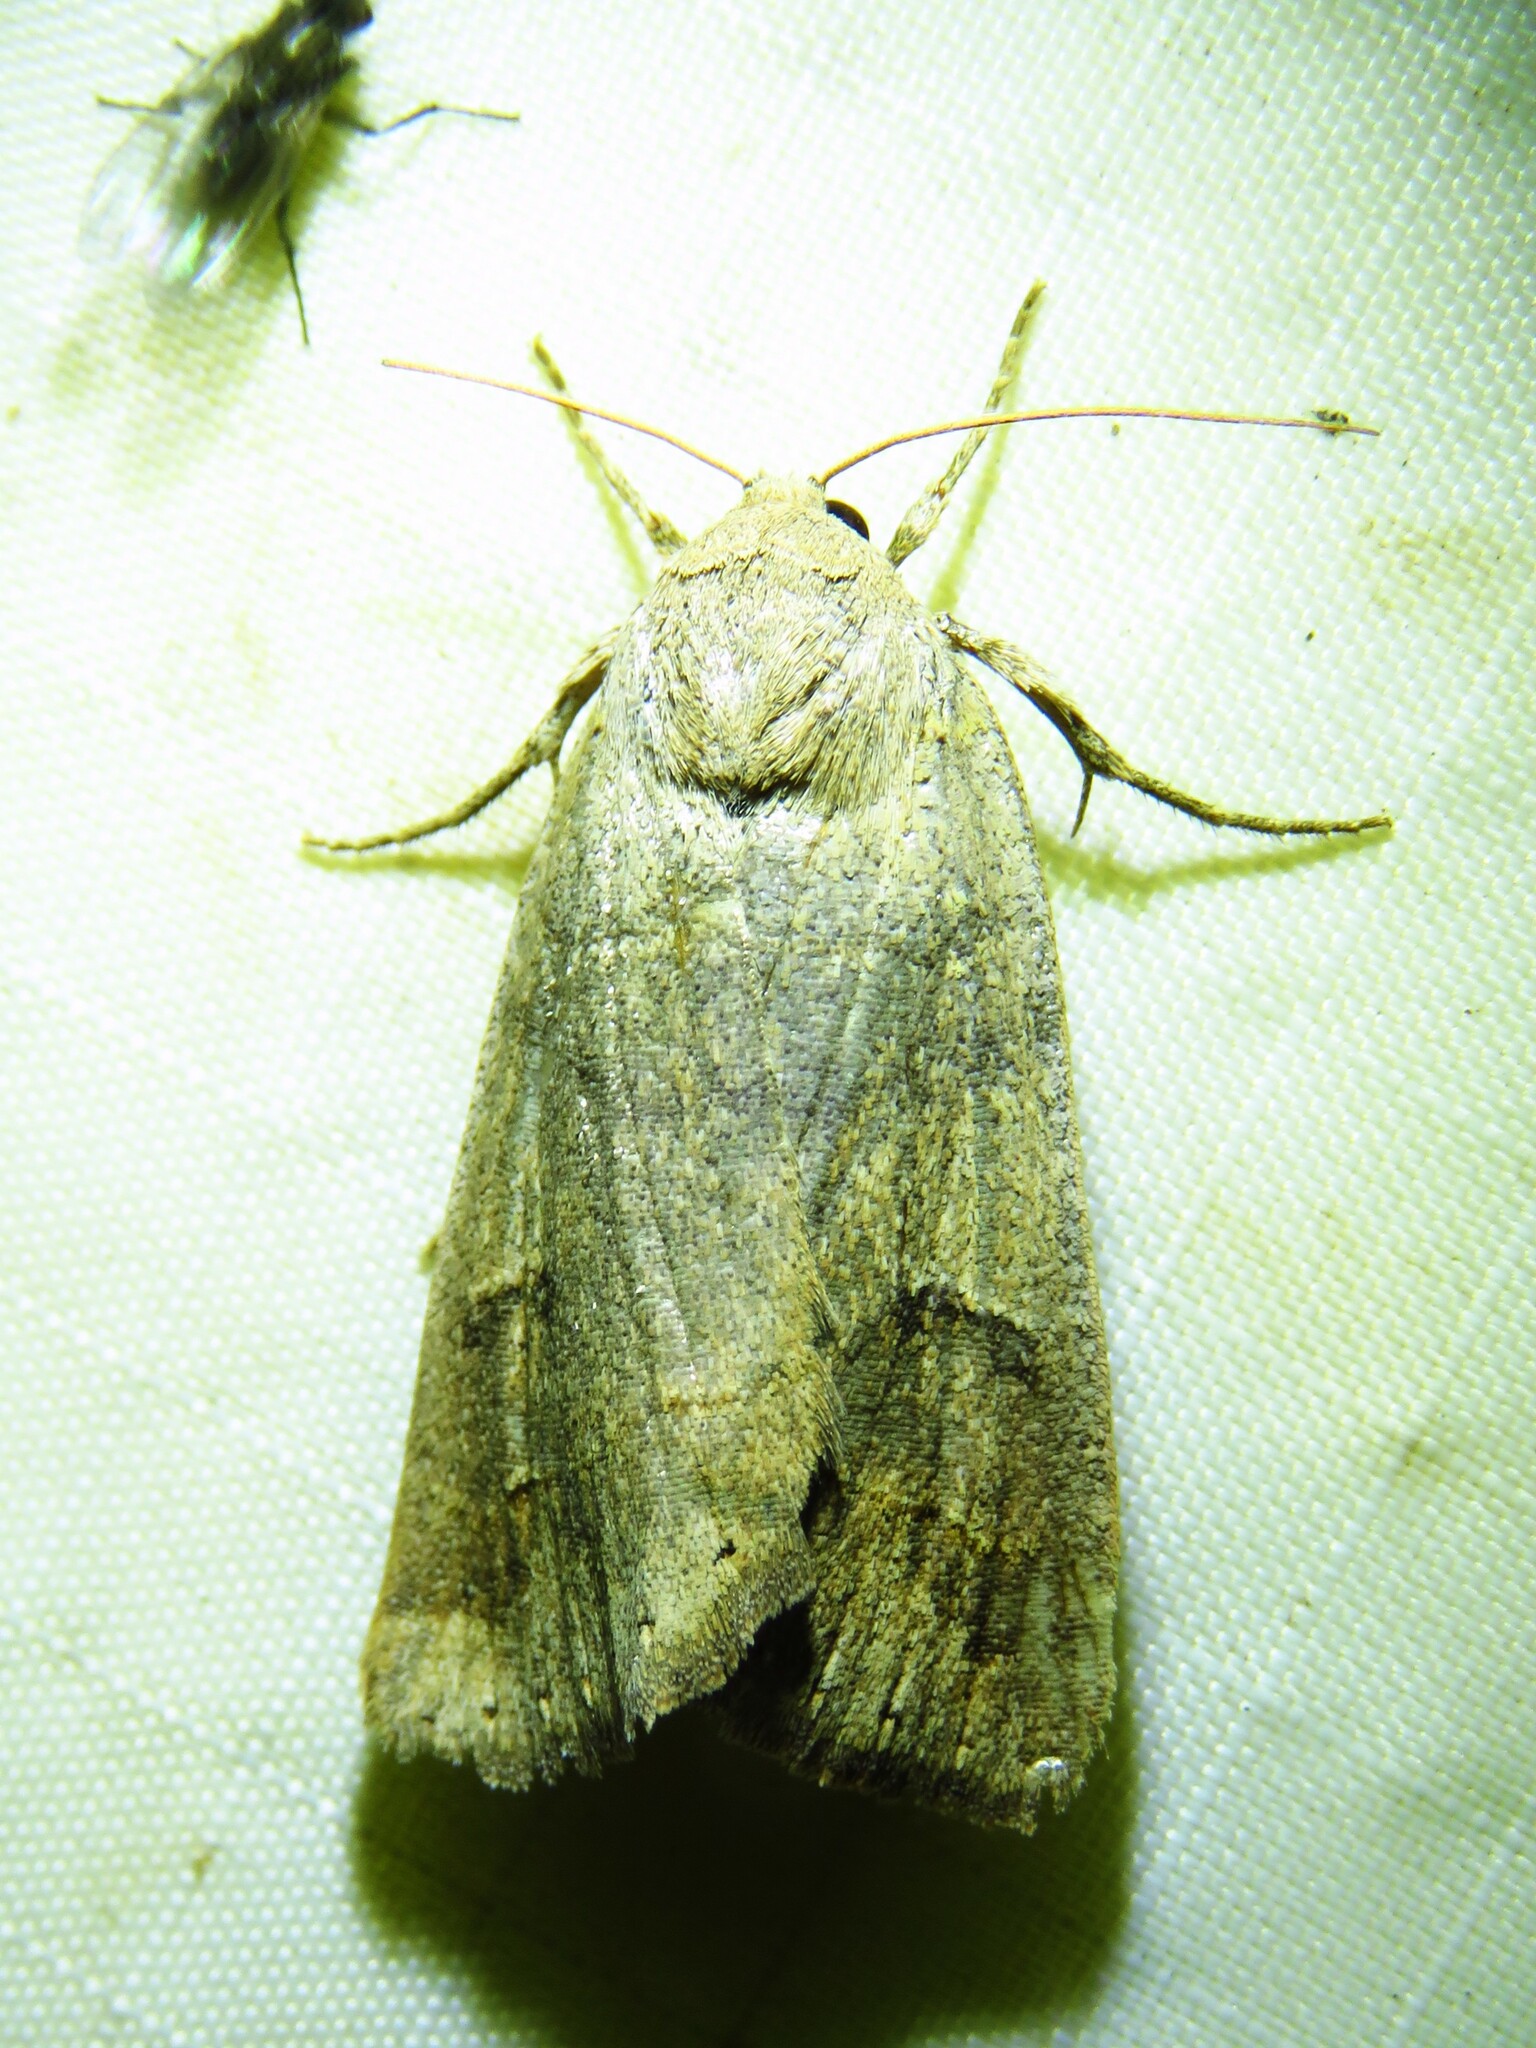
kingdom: Animalia
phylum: Arthropoda
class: Insecta
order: Lepidoptera
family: Erebidae
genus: Phoberia
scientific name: Phoberia atomaris
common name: Common oak moth
